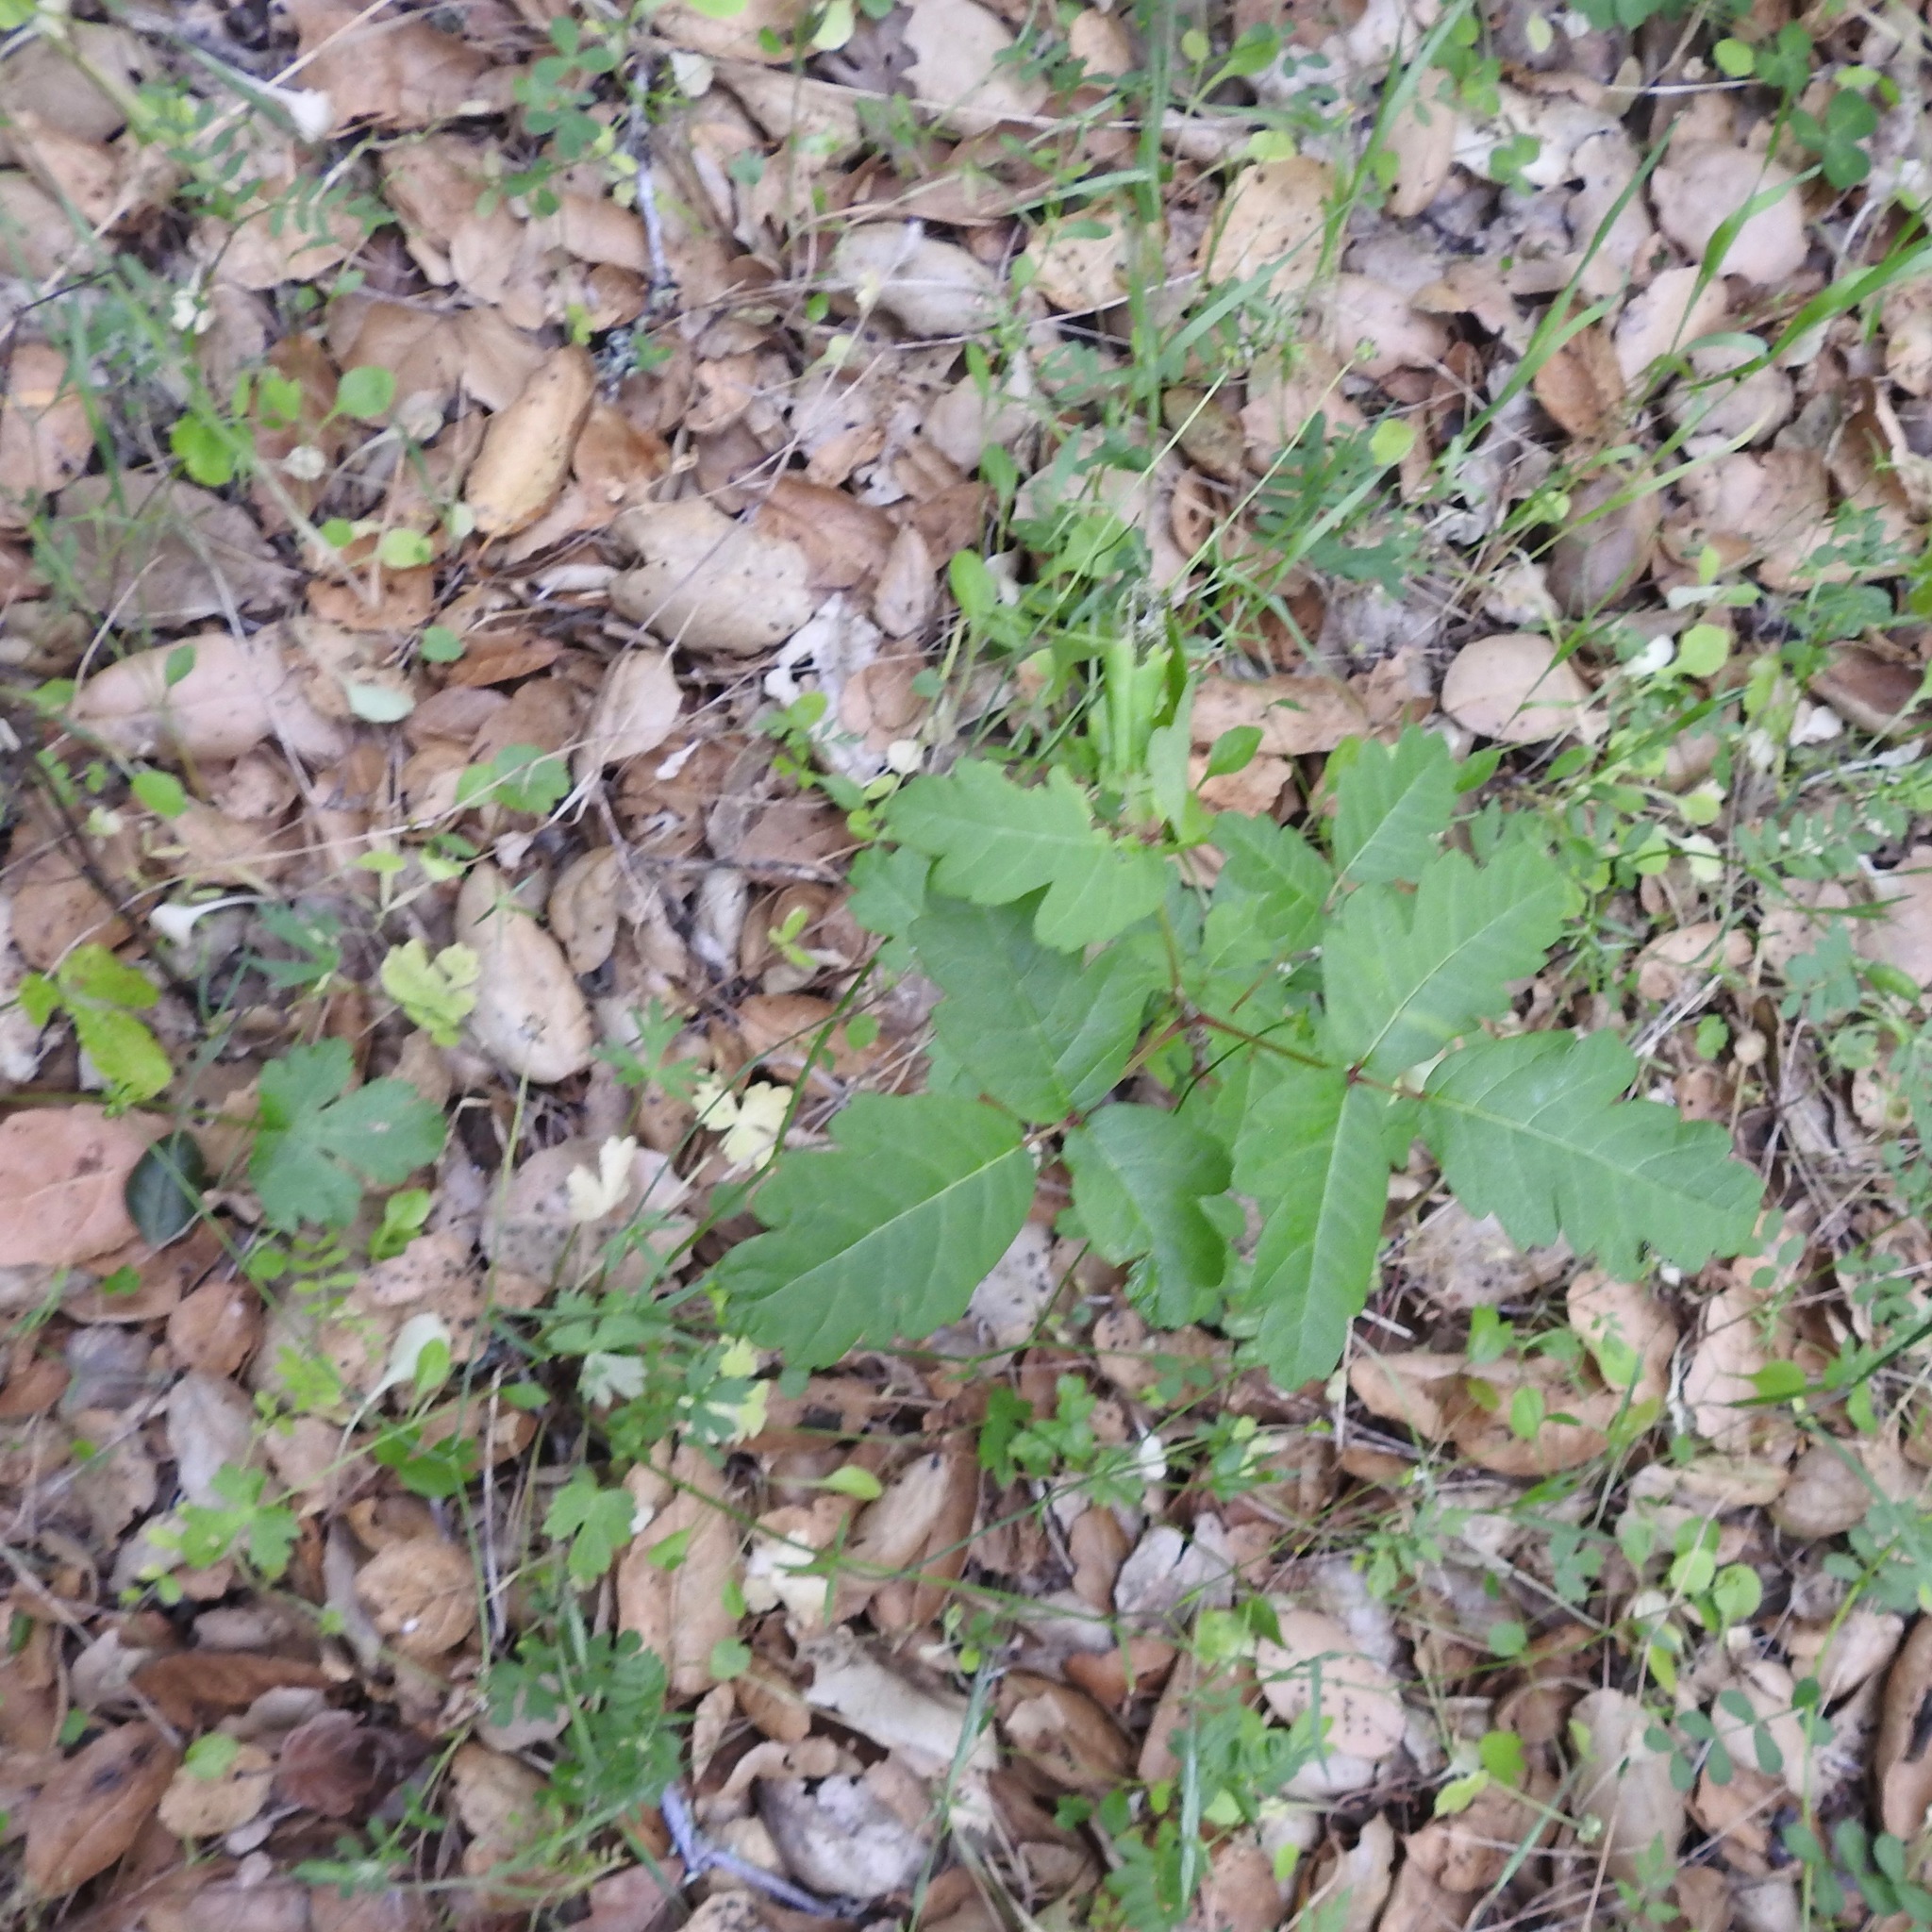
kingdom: Plantae
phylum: Tracheophyta
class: Magnoliopsida
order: Sapindales
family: Anacardiaceae
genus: Toxicodendron
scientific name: Toxicodendron diversilobum
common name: Pacific poison-oak
